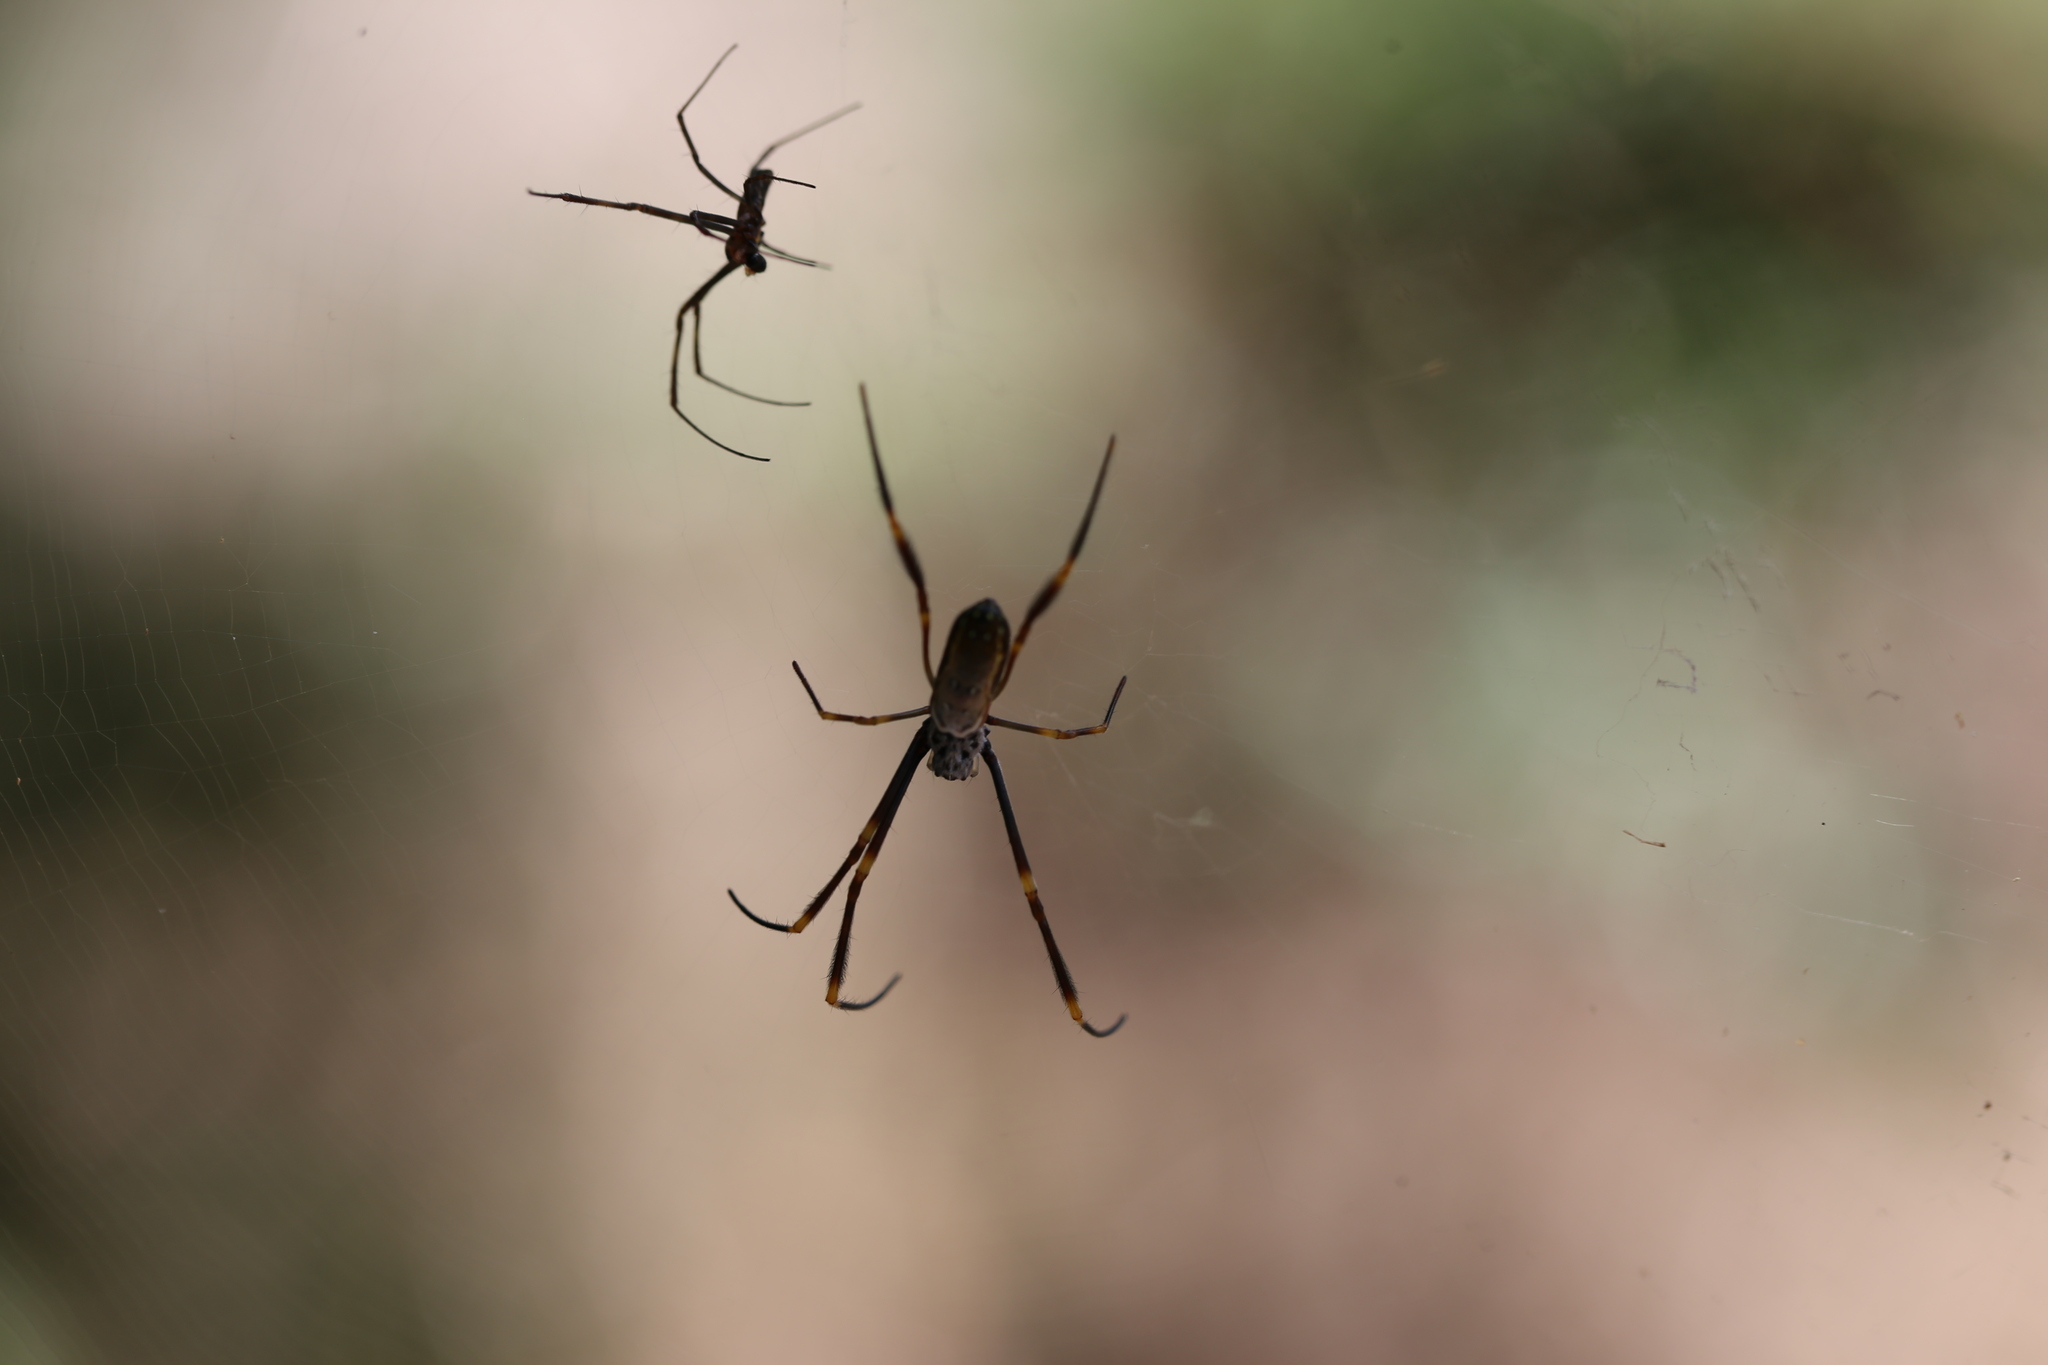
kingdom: Animalia
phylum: Arthropoda
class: Arachnida
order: Araneae
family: Araneidae
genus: Trichonephila
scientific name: Trichonephila plumipes
